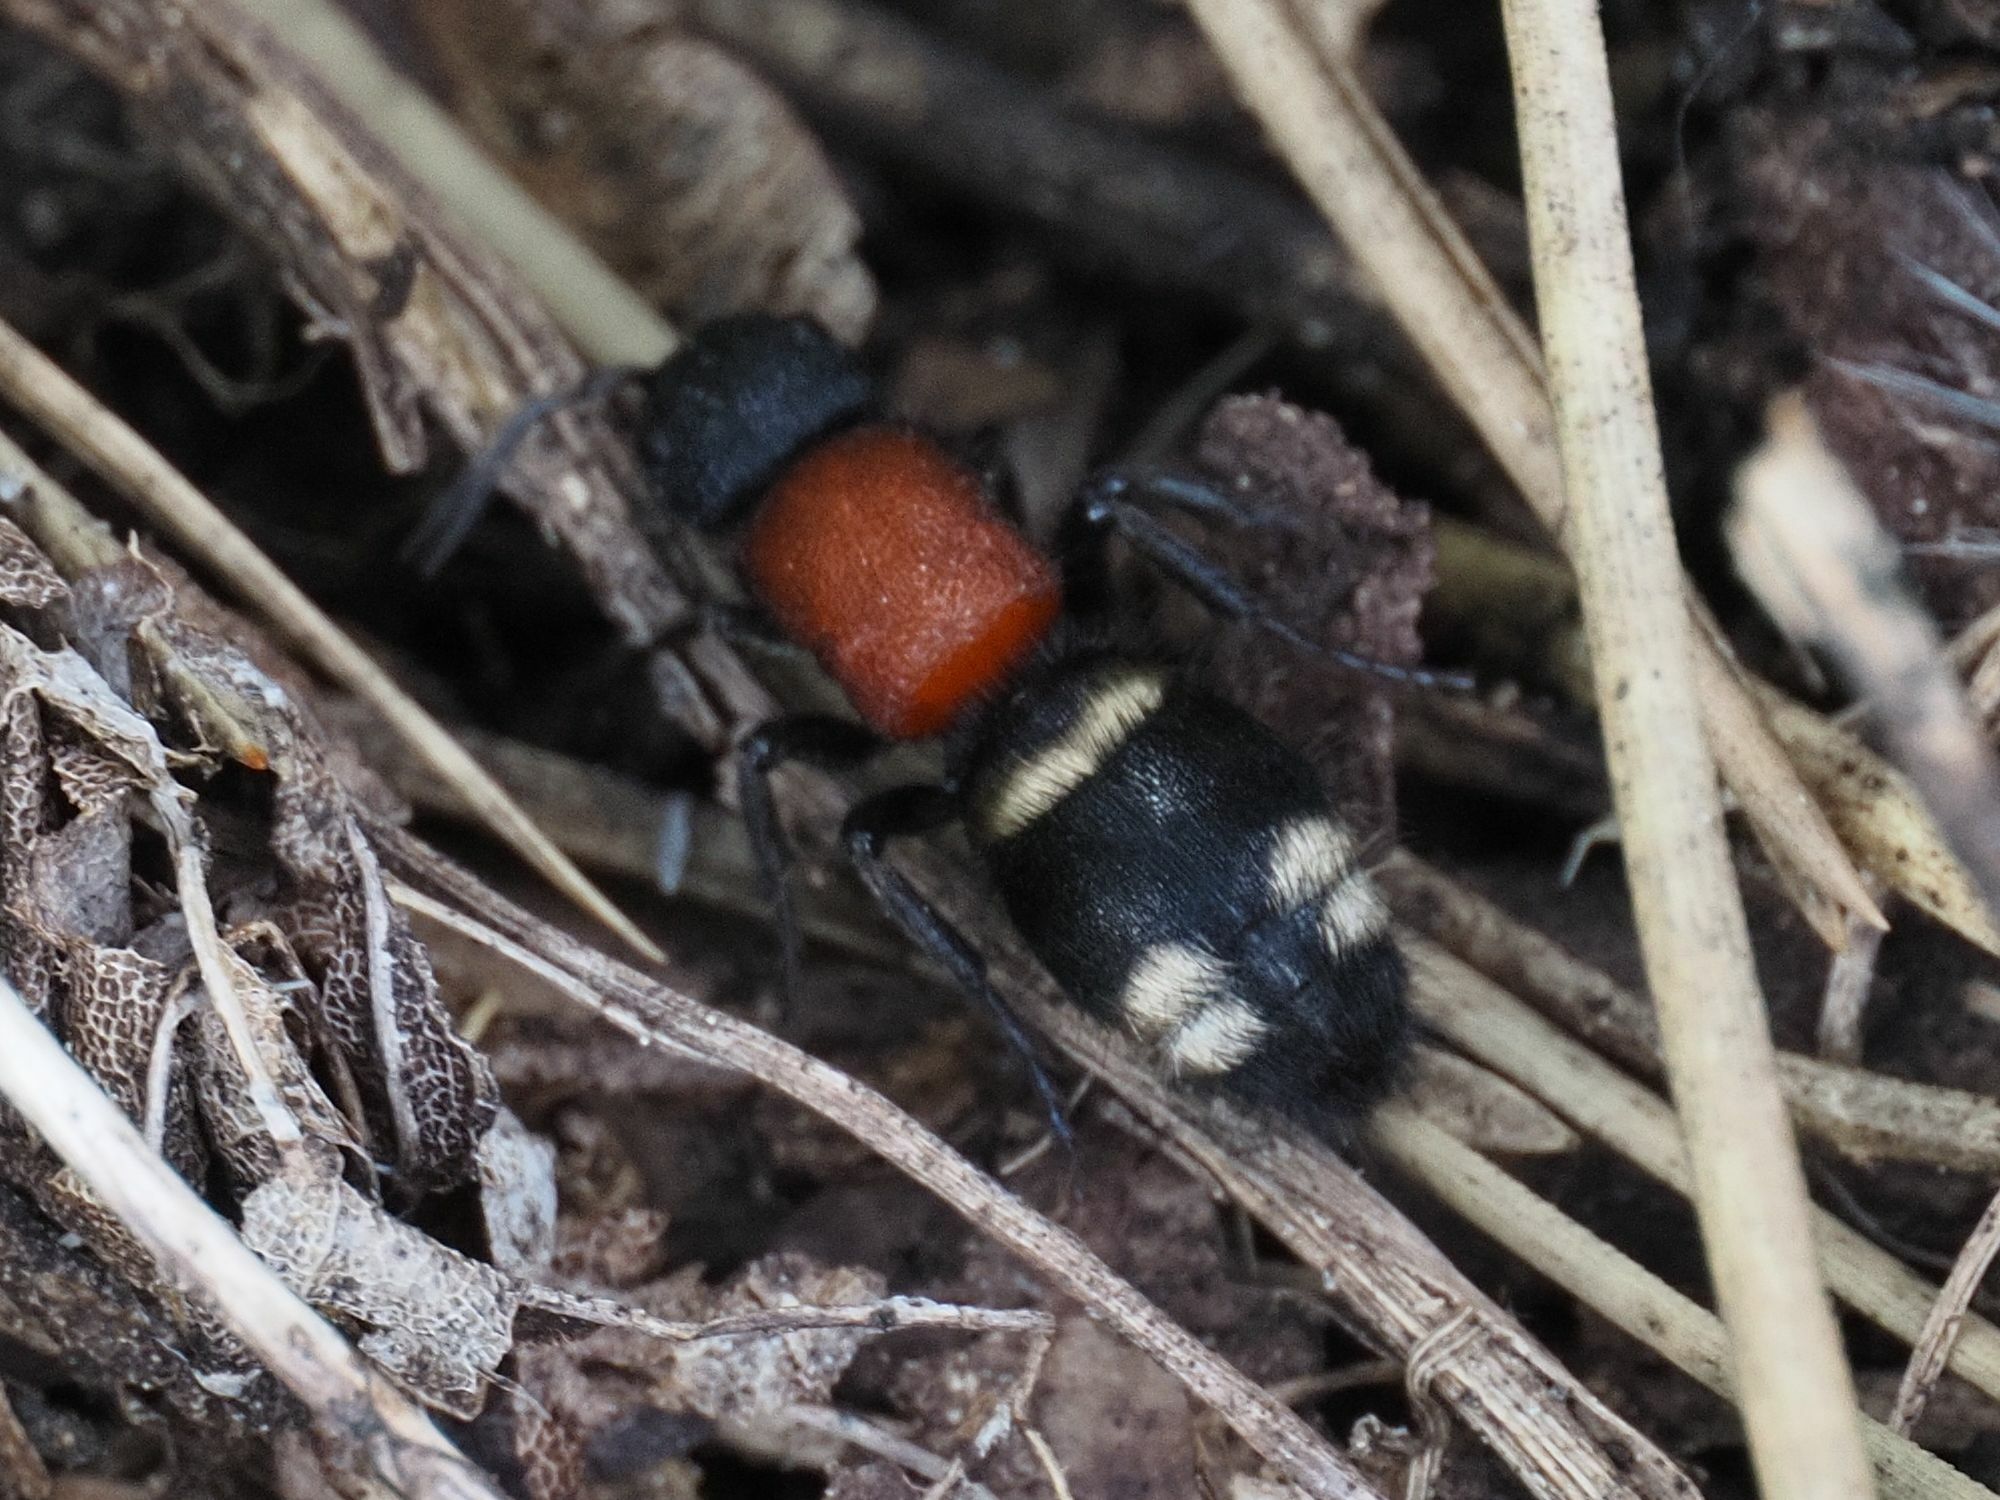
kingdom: Animalia
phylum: Arthropoda
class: Insecta
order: Hymenoptera
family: Mutillidae
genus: Mutilla
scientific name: Mutilla europaea
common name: Large velvet ant
